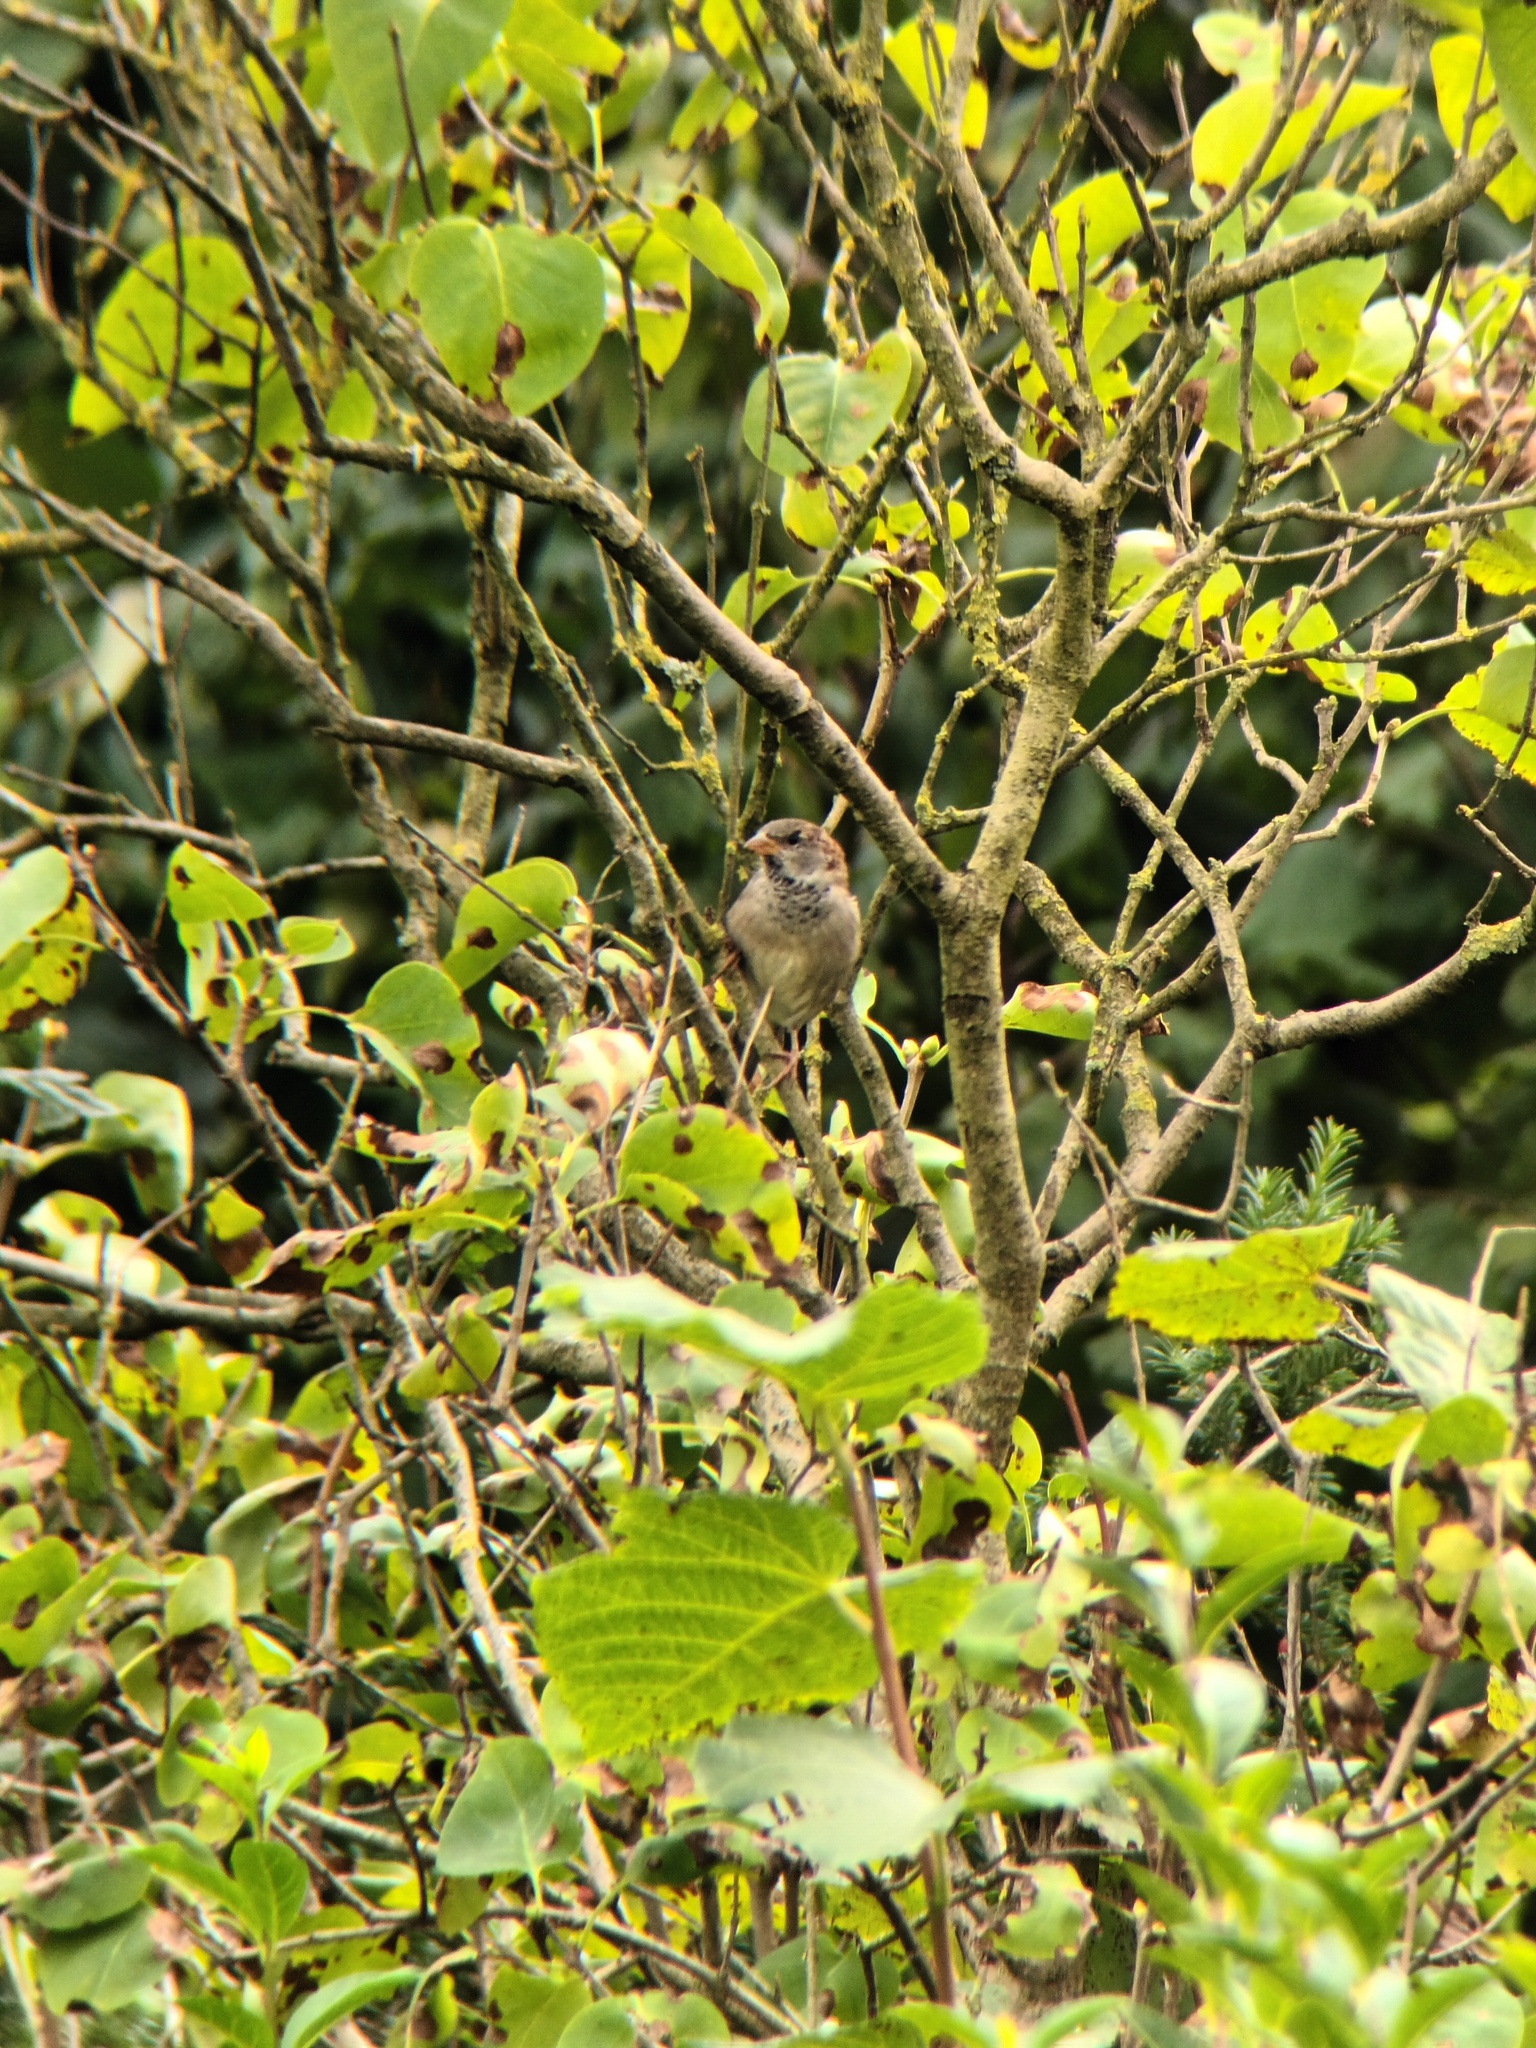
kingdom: Animalia
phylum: Chordata
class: Aves
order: Passeriformes
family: Passeridae
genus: Passer
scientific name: Passer domesticus
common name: House sparrow
